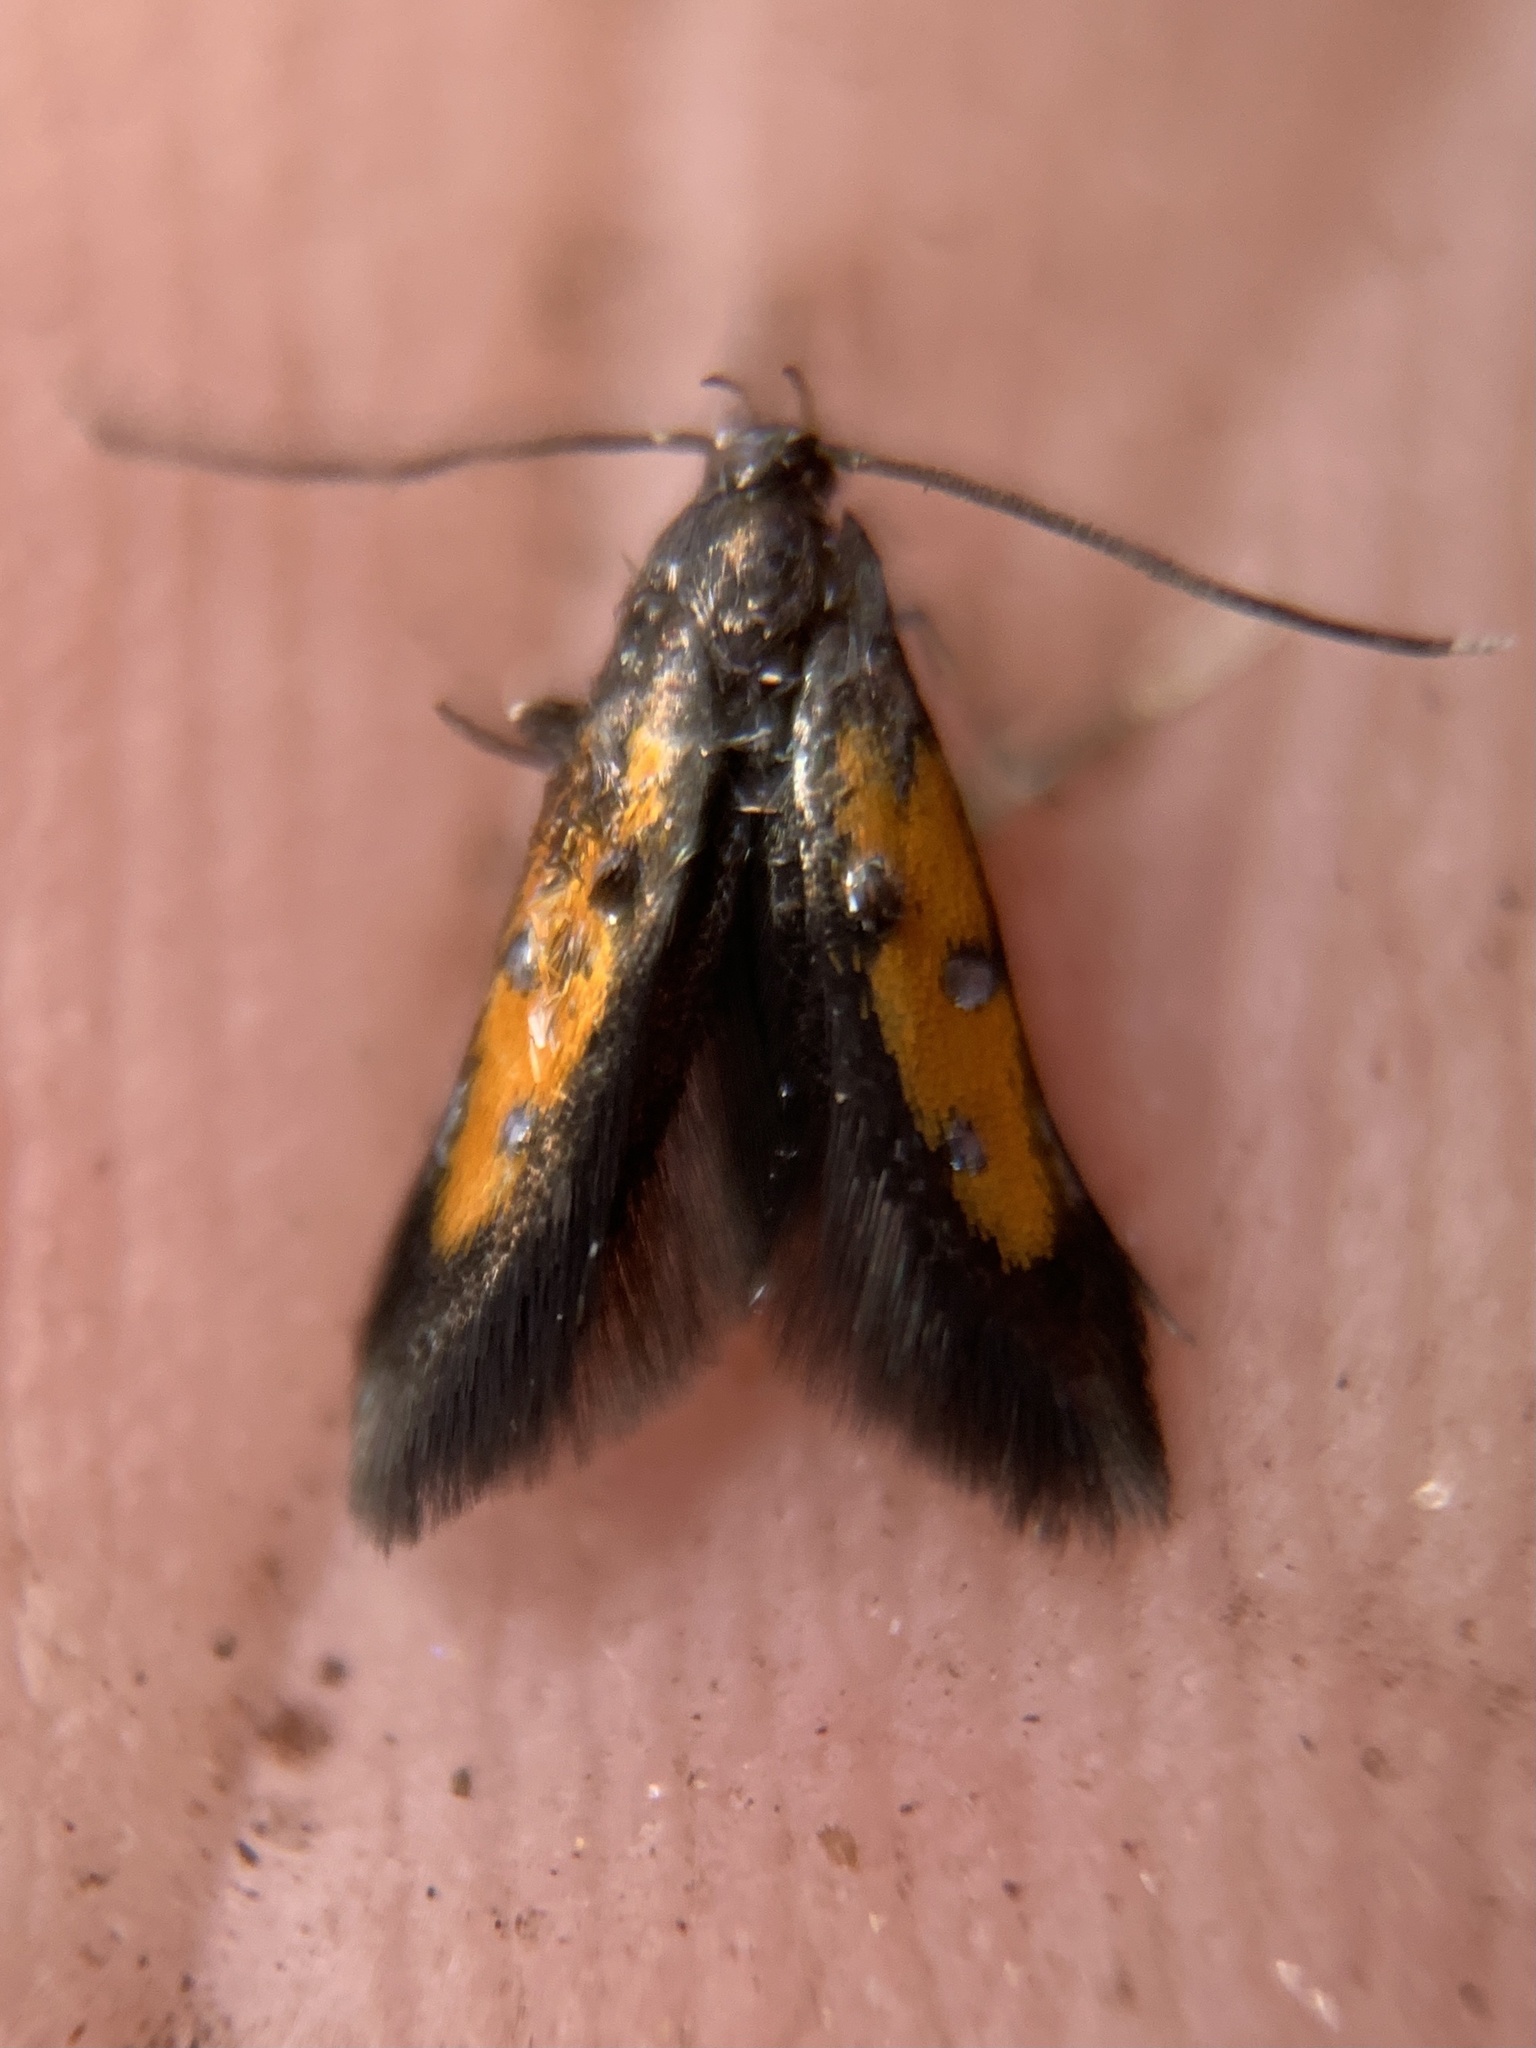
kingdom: Animalia
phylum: Arthropoda
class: Insecta
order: Lepidoptera
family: Elachistidae
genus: Chrysoclista
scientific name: Chrysoclista linneela
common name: Lime cosmet
